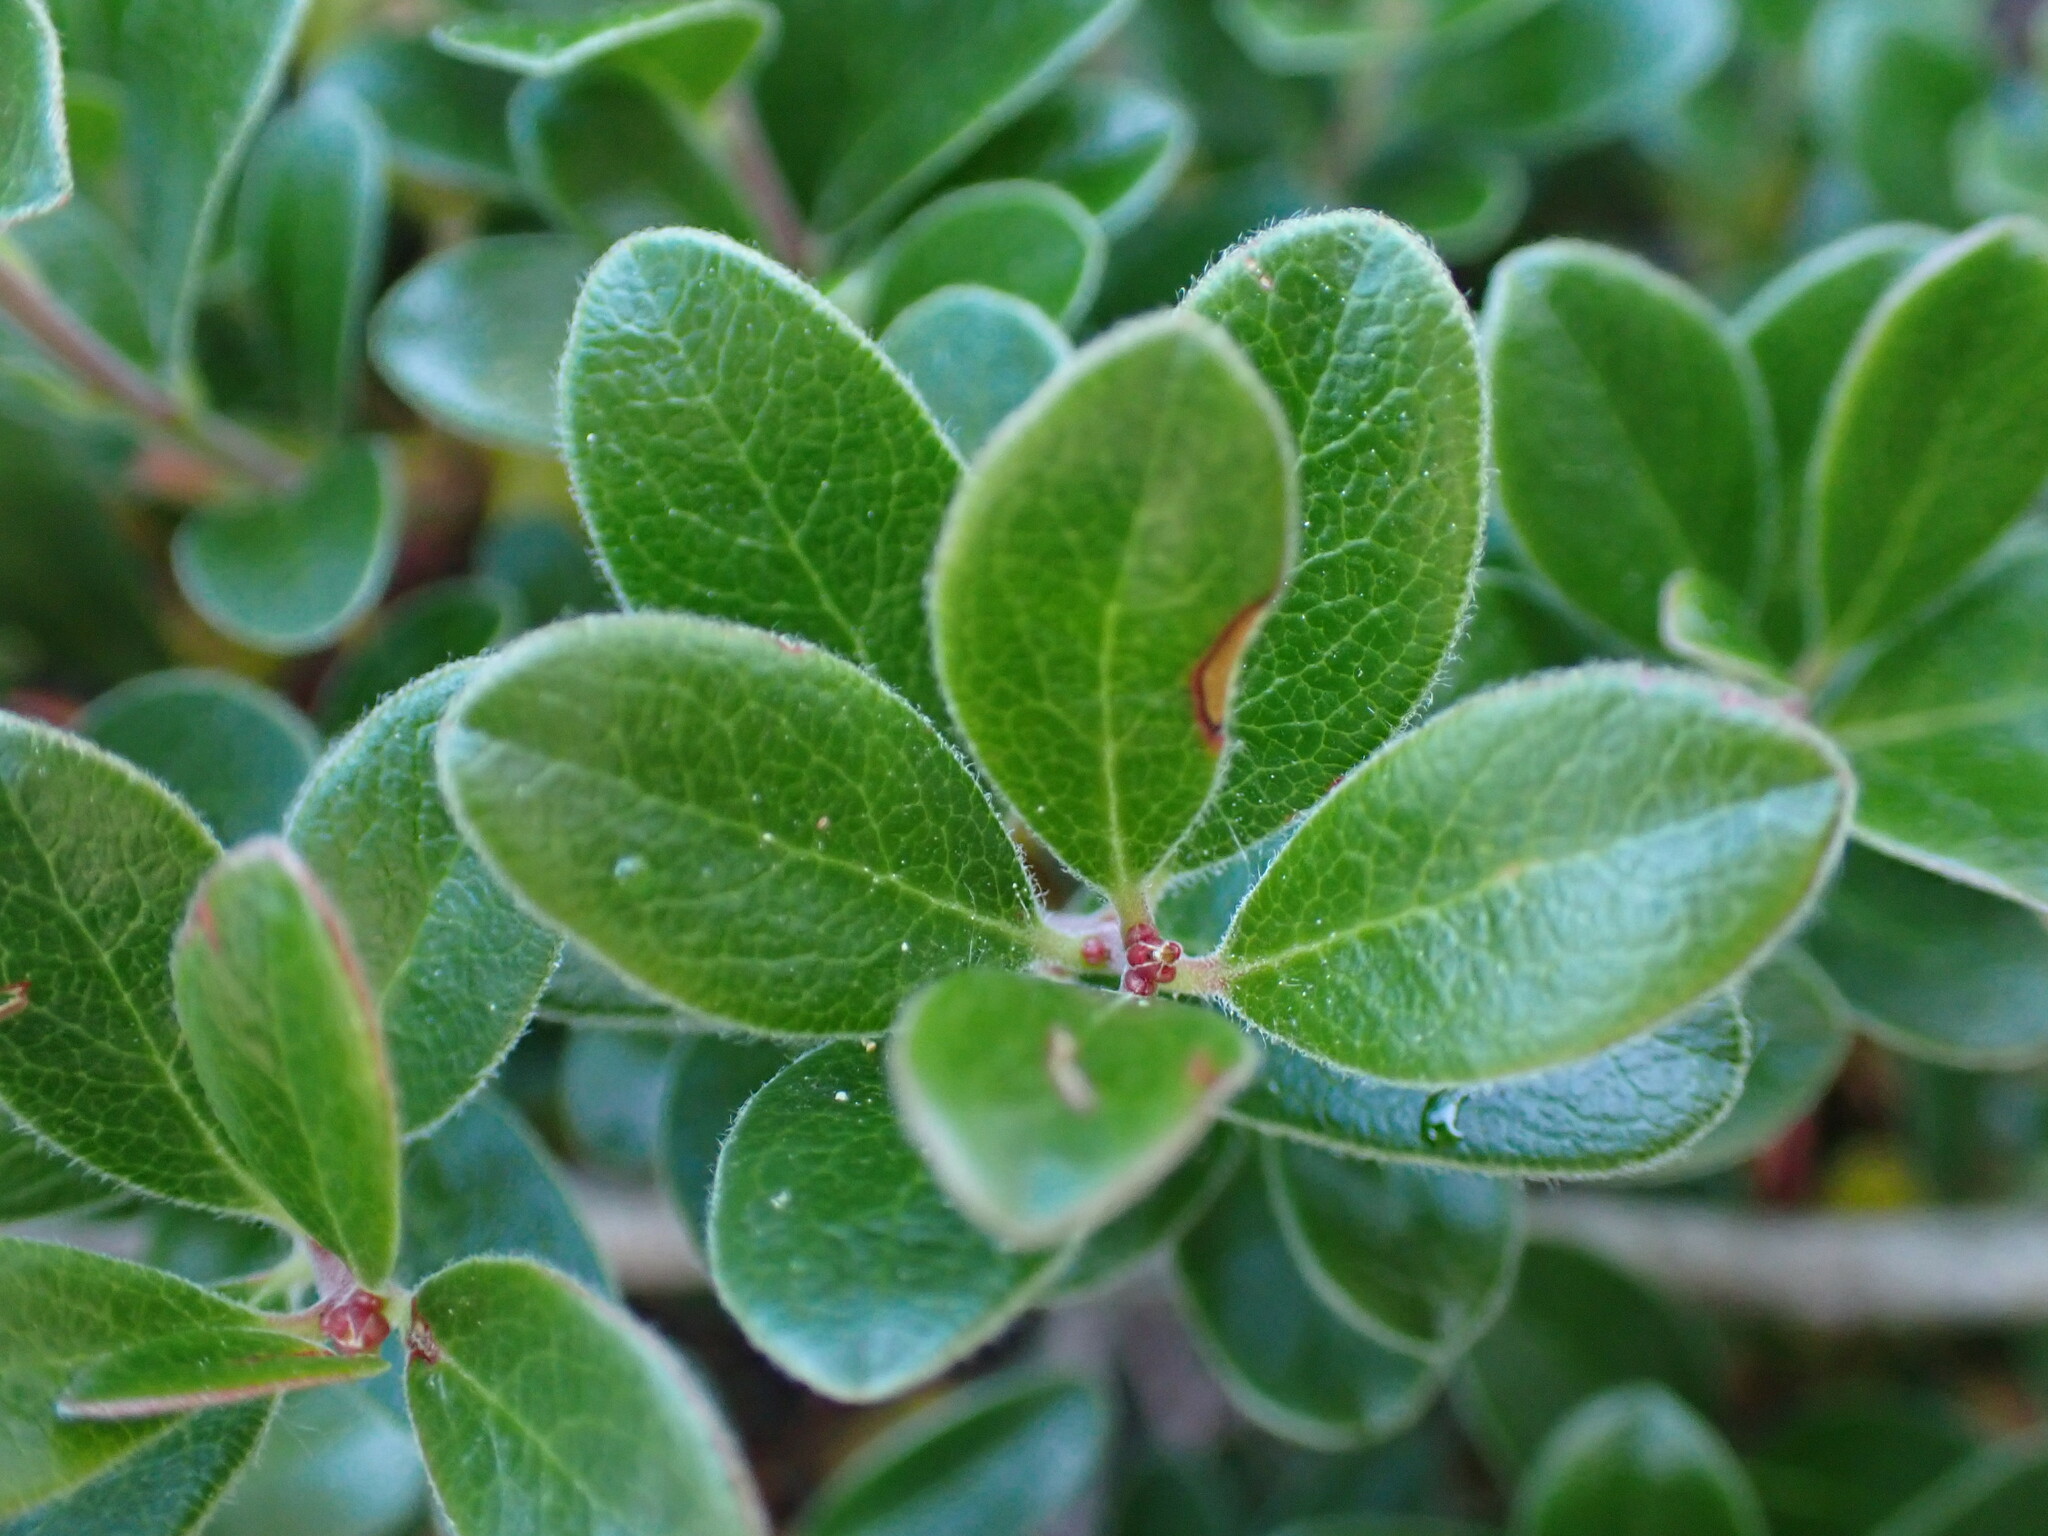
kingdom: Plantae
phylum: Tracheophyta
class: Magnoliopsida
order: Ericales
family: Ericaceae
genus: Arctostaphylos
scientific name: Arctostaphylos uva-ursi
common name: Bearberry
